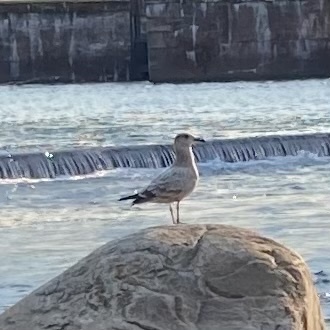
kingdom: Animalia
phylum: Chordata
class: Aves
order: Charadriiformes
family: Laridae
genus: Larus
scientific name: Larus argentatus
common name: Herring gull
